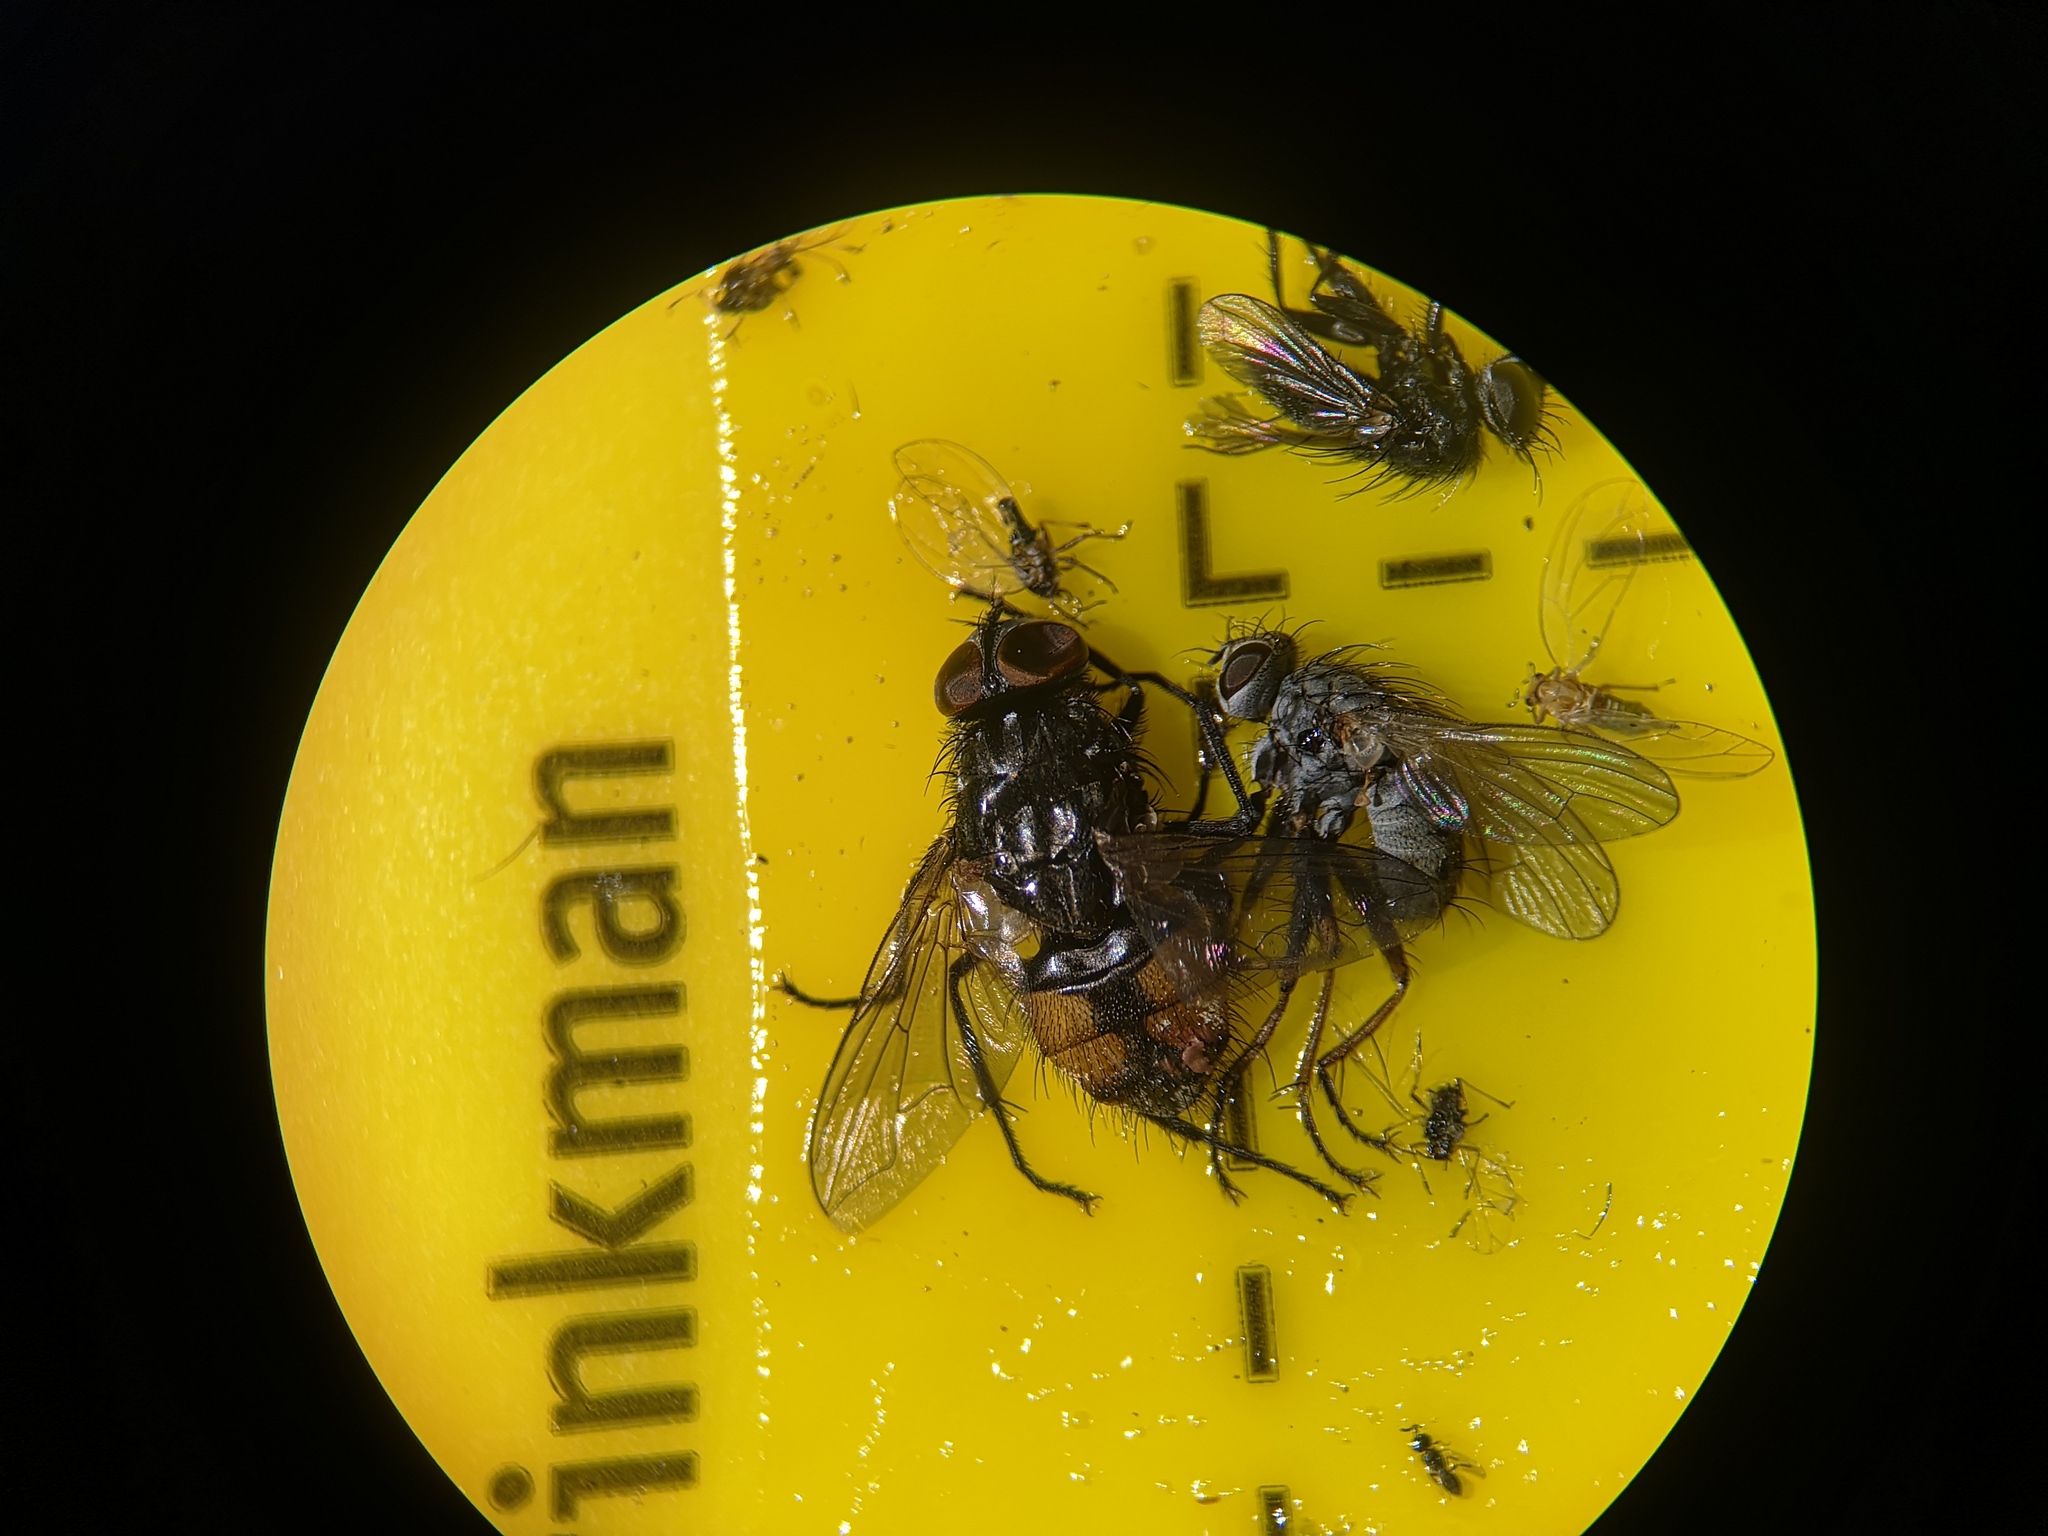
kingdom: Animalia
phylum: Arthropoda
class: Insecta
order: Diptera
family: Muscidae
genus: Musca
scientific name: Musca autumnalis
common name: Face fly
